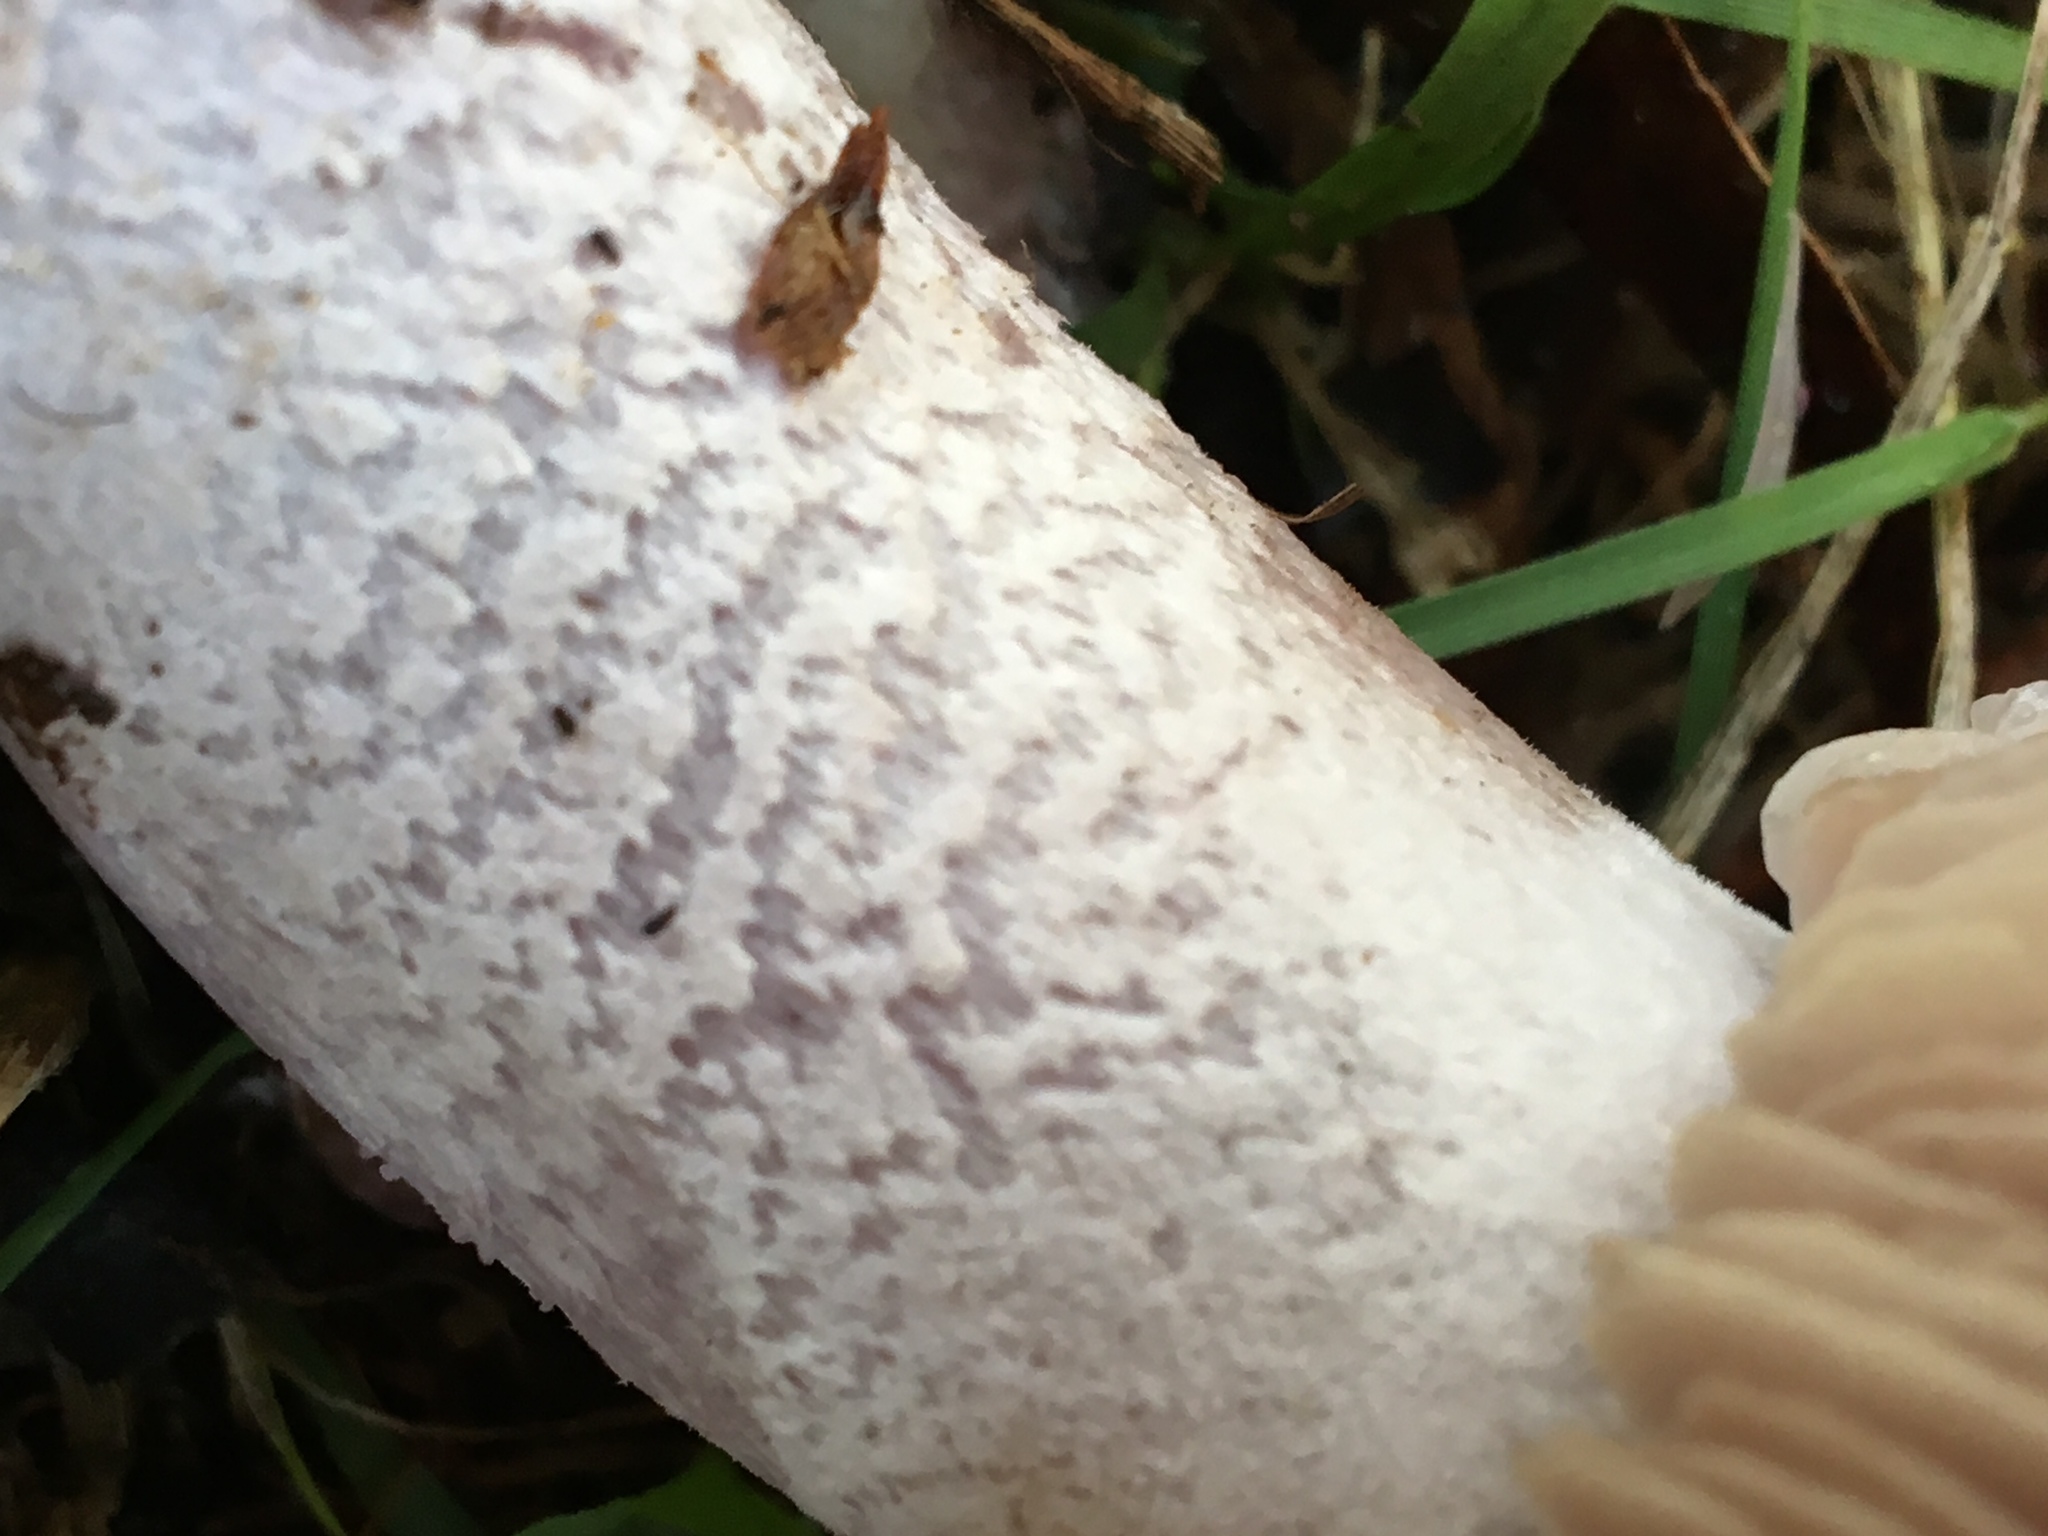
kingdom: Fungi
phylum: Basidiomycota
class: Agaricomycetes
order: Agaricales
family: Tricholomataceae
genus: Collybia
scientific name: Collybia
